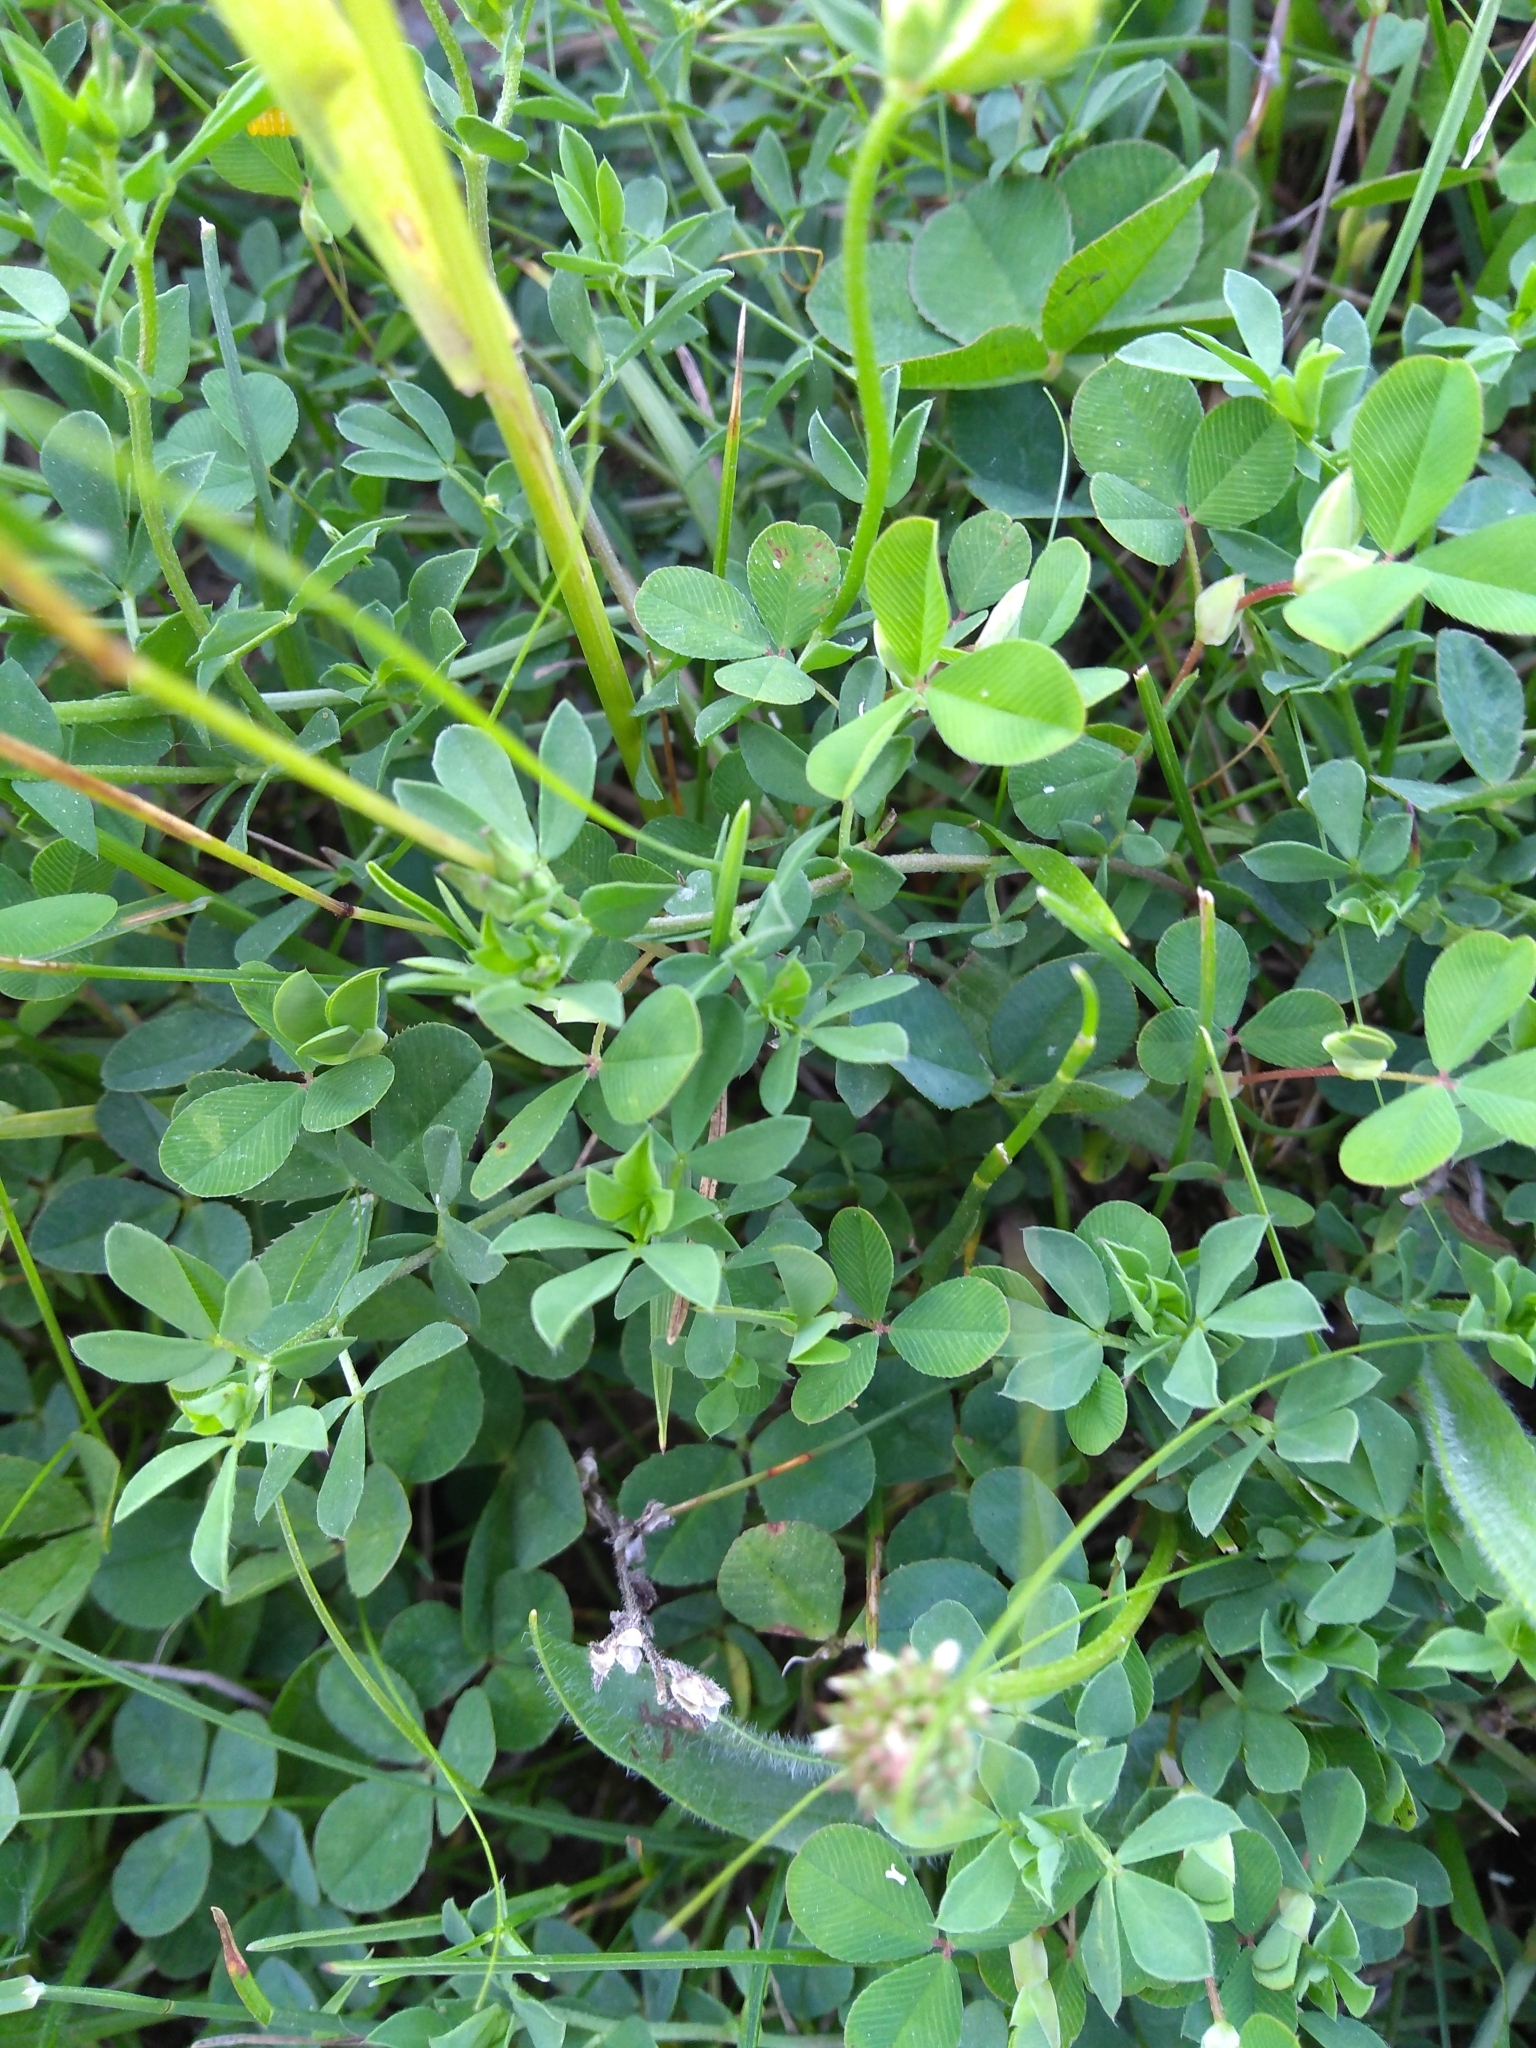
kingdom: Plantae
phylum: Tracheophyta
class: Magnoliopsida
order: Fabales
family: Fabaceae
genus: Lotus
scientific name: Lotus corniculatus
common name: Common bird's-foot-trefoil
